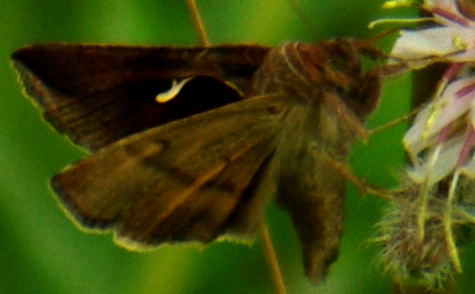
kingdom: Animalia
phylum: Arthropoda
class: Insecta
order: Lepidoptera
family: Noctuidae
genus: Anagrapha
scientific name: Anagrapha falcifera
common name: Celery looper
